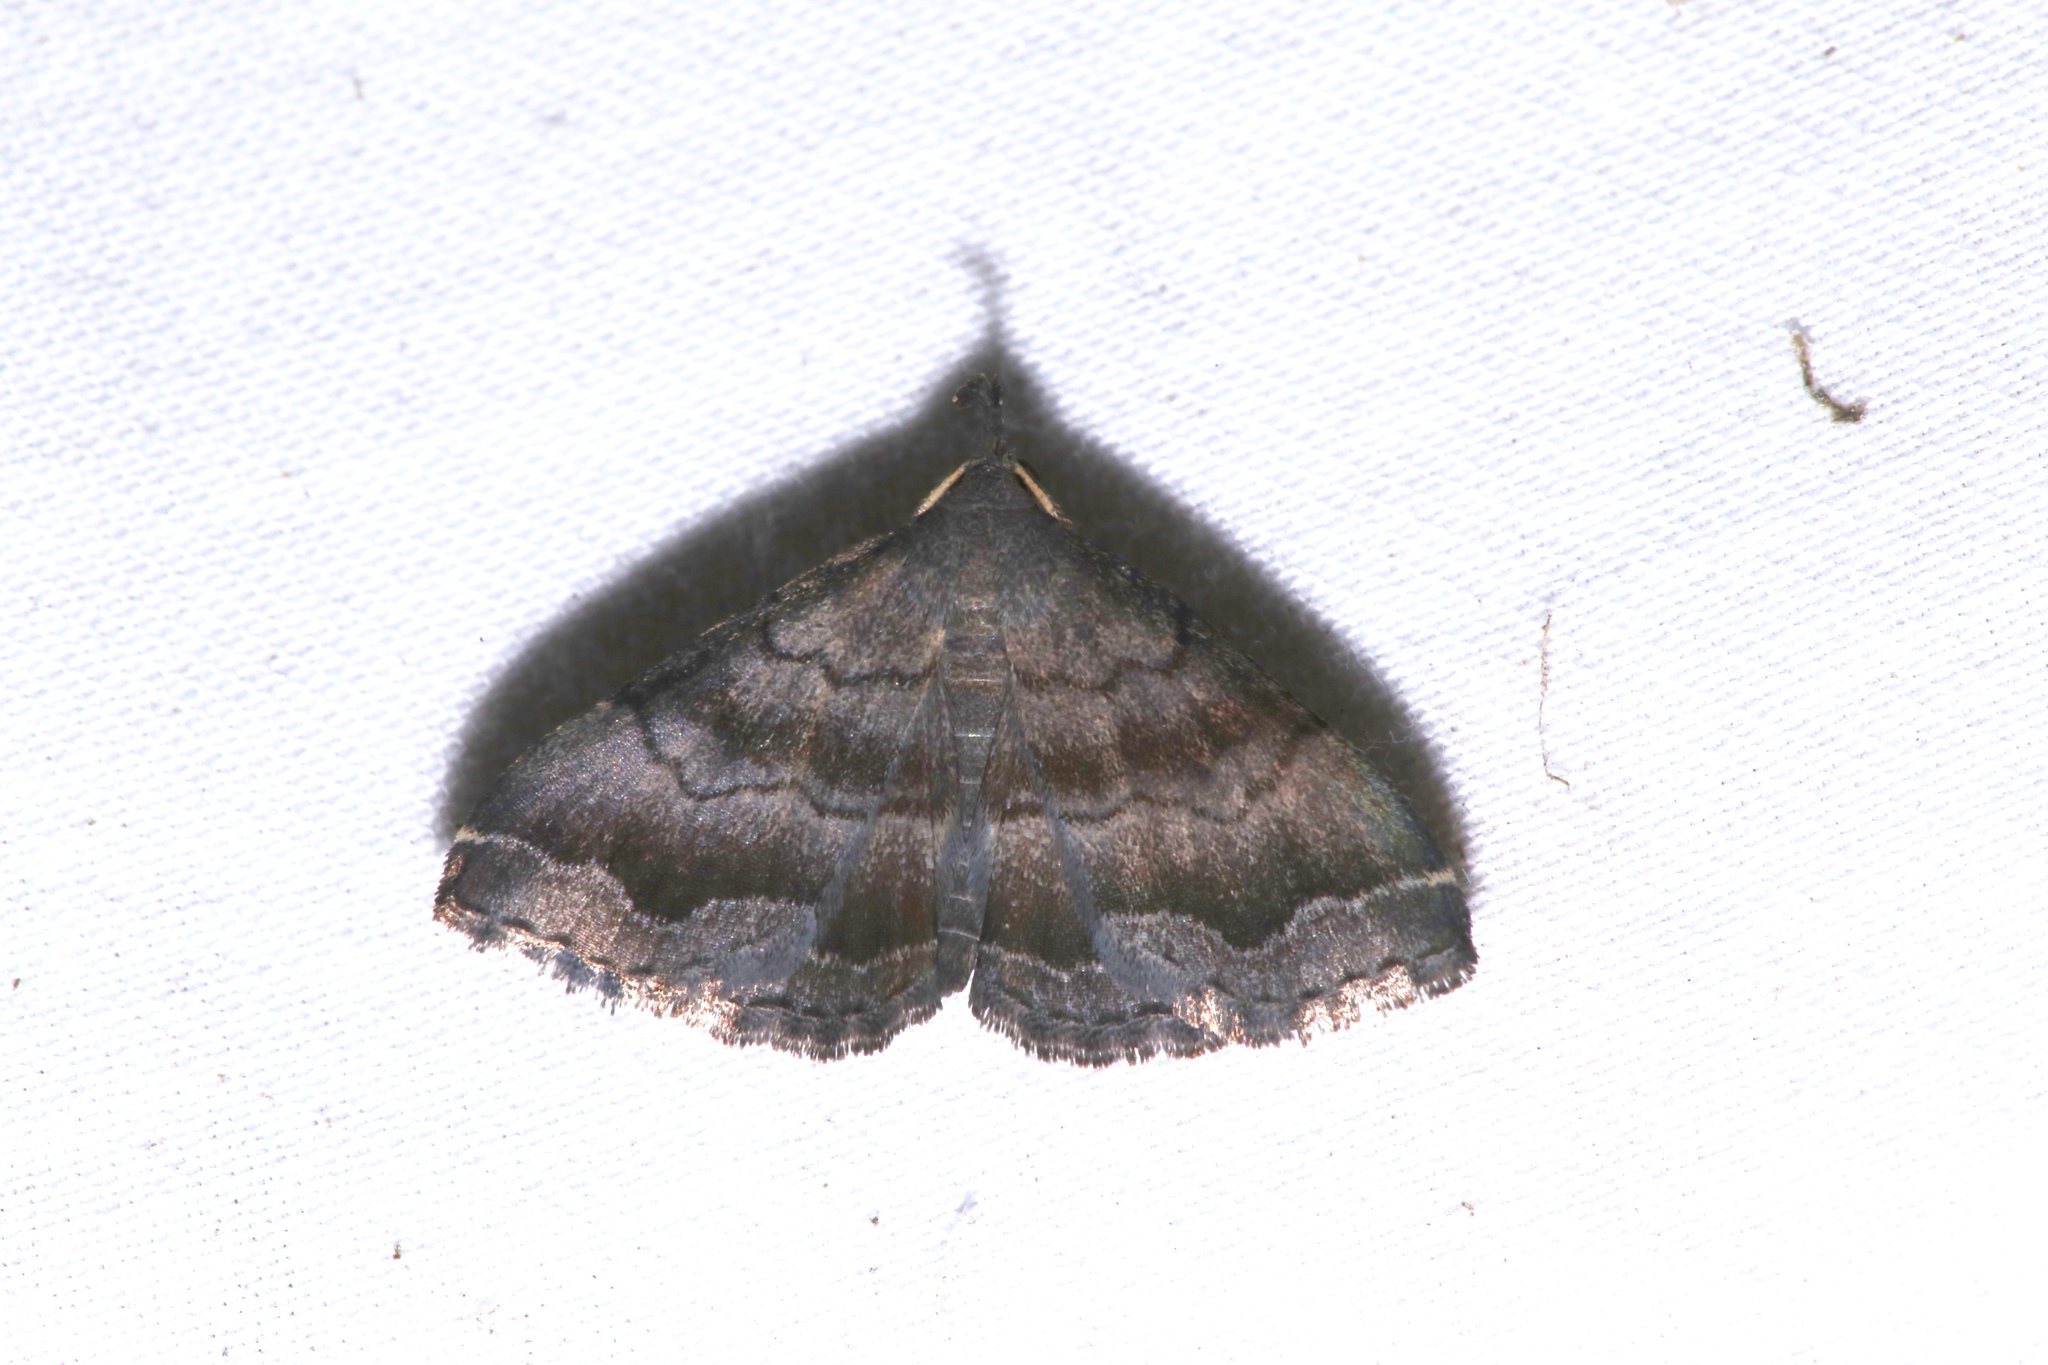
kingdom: Animalia
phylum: Arthropoda
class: Insecta
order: Lepidoptera
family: Erebidae
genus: Phalaenostola
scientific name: Phalaenostola larentioides
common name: Black-banded owlet
